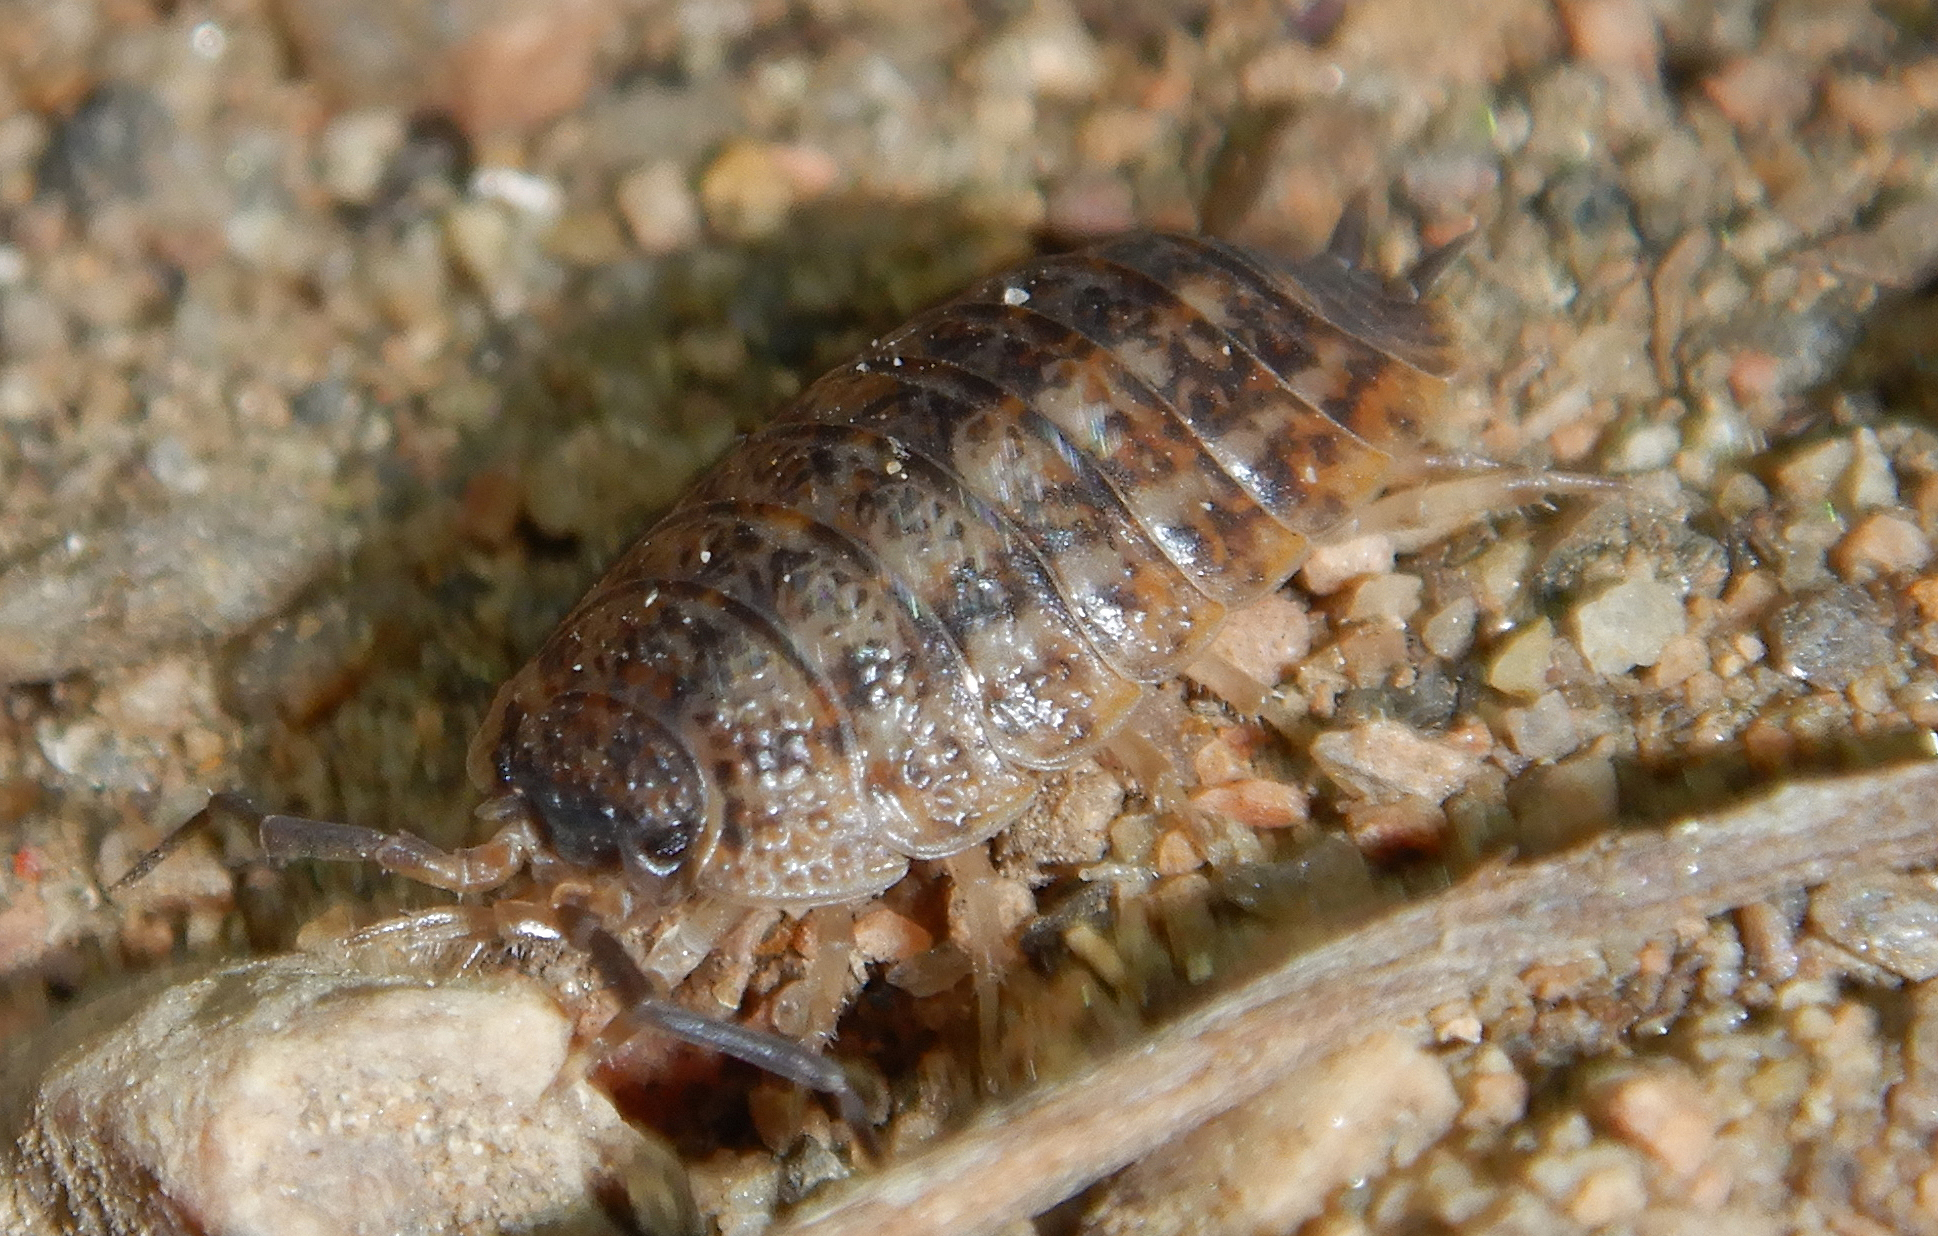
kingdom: Animalia
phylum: Arthropoda
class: Malacostraca
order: Isopoda
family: Trachelipodidae
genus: Trachelipus
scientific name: Trachelipus rathkii
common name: Isopod
